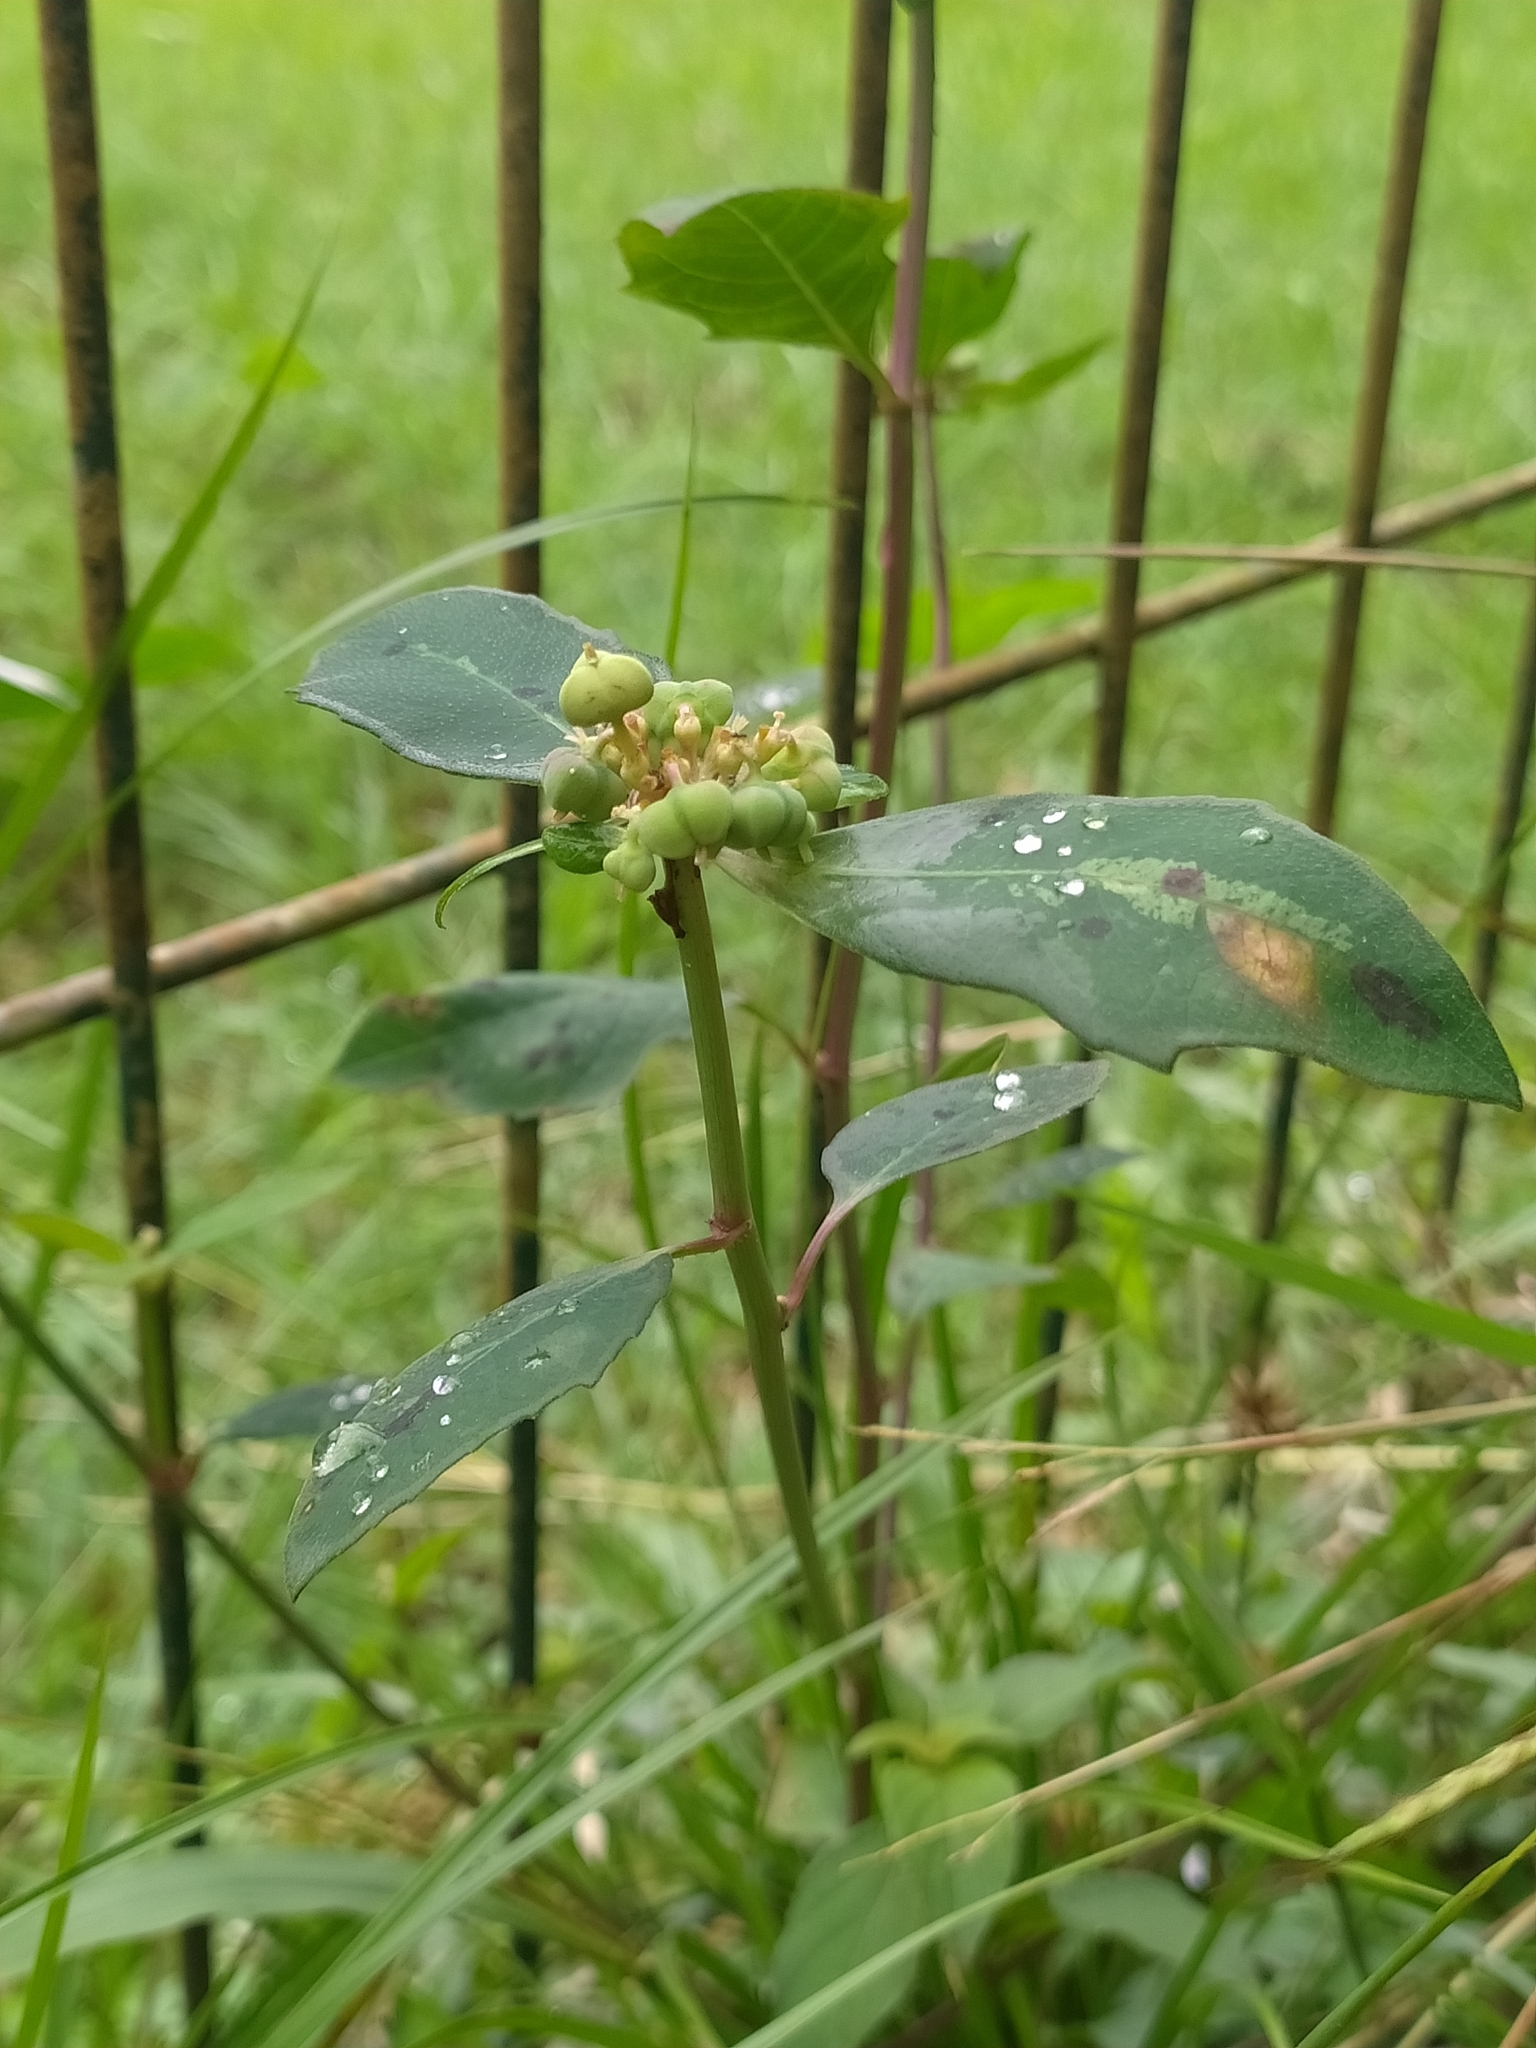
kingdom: Plantae
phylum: Tracheophyta
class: Magnoliopsida
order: Malpighiales
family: Euphorbiaceae
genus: Euphorbia
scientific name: Euphorbia heterophylla
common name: Mexican fireplant
